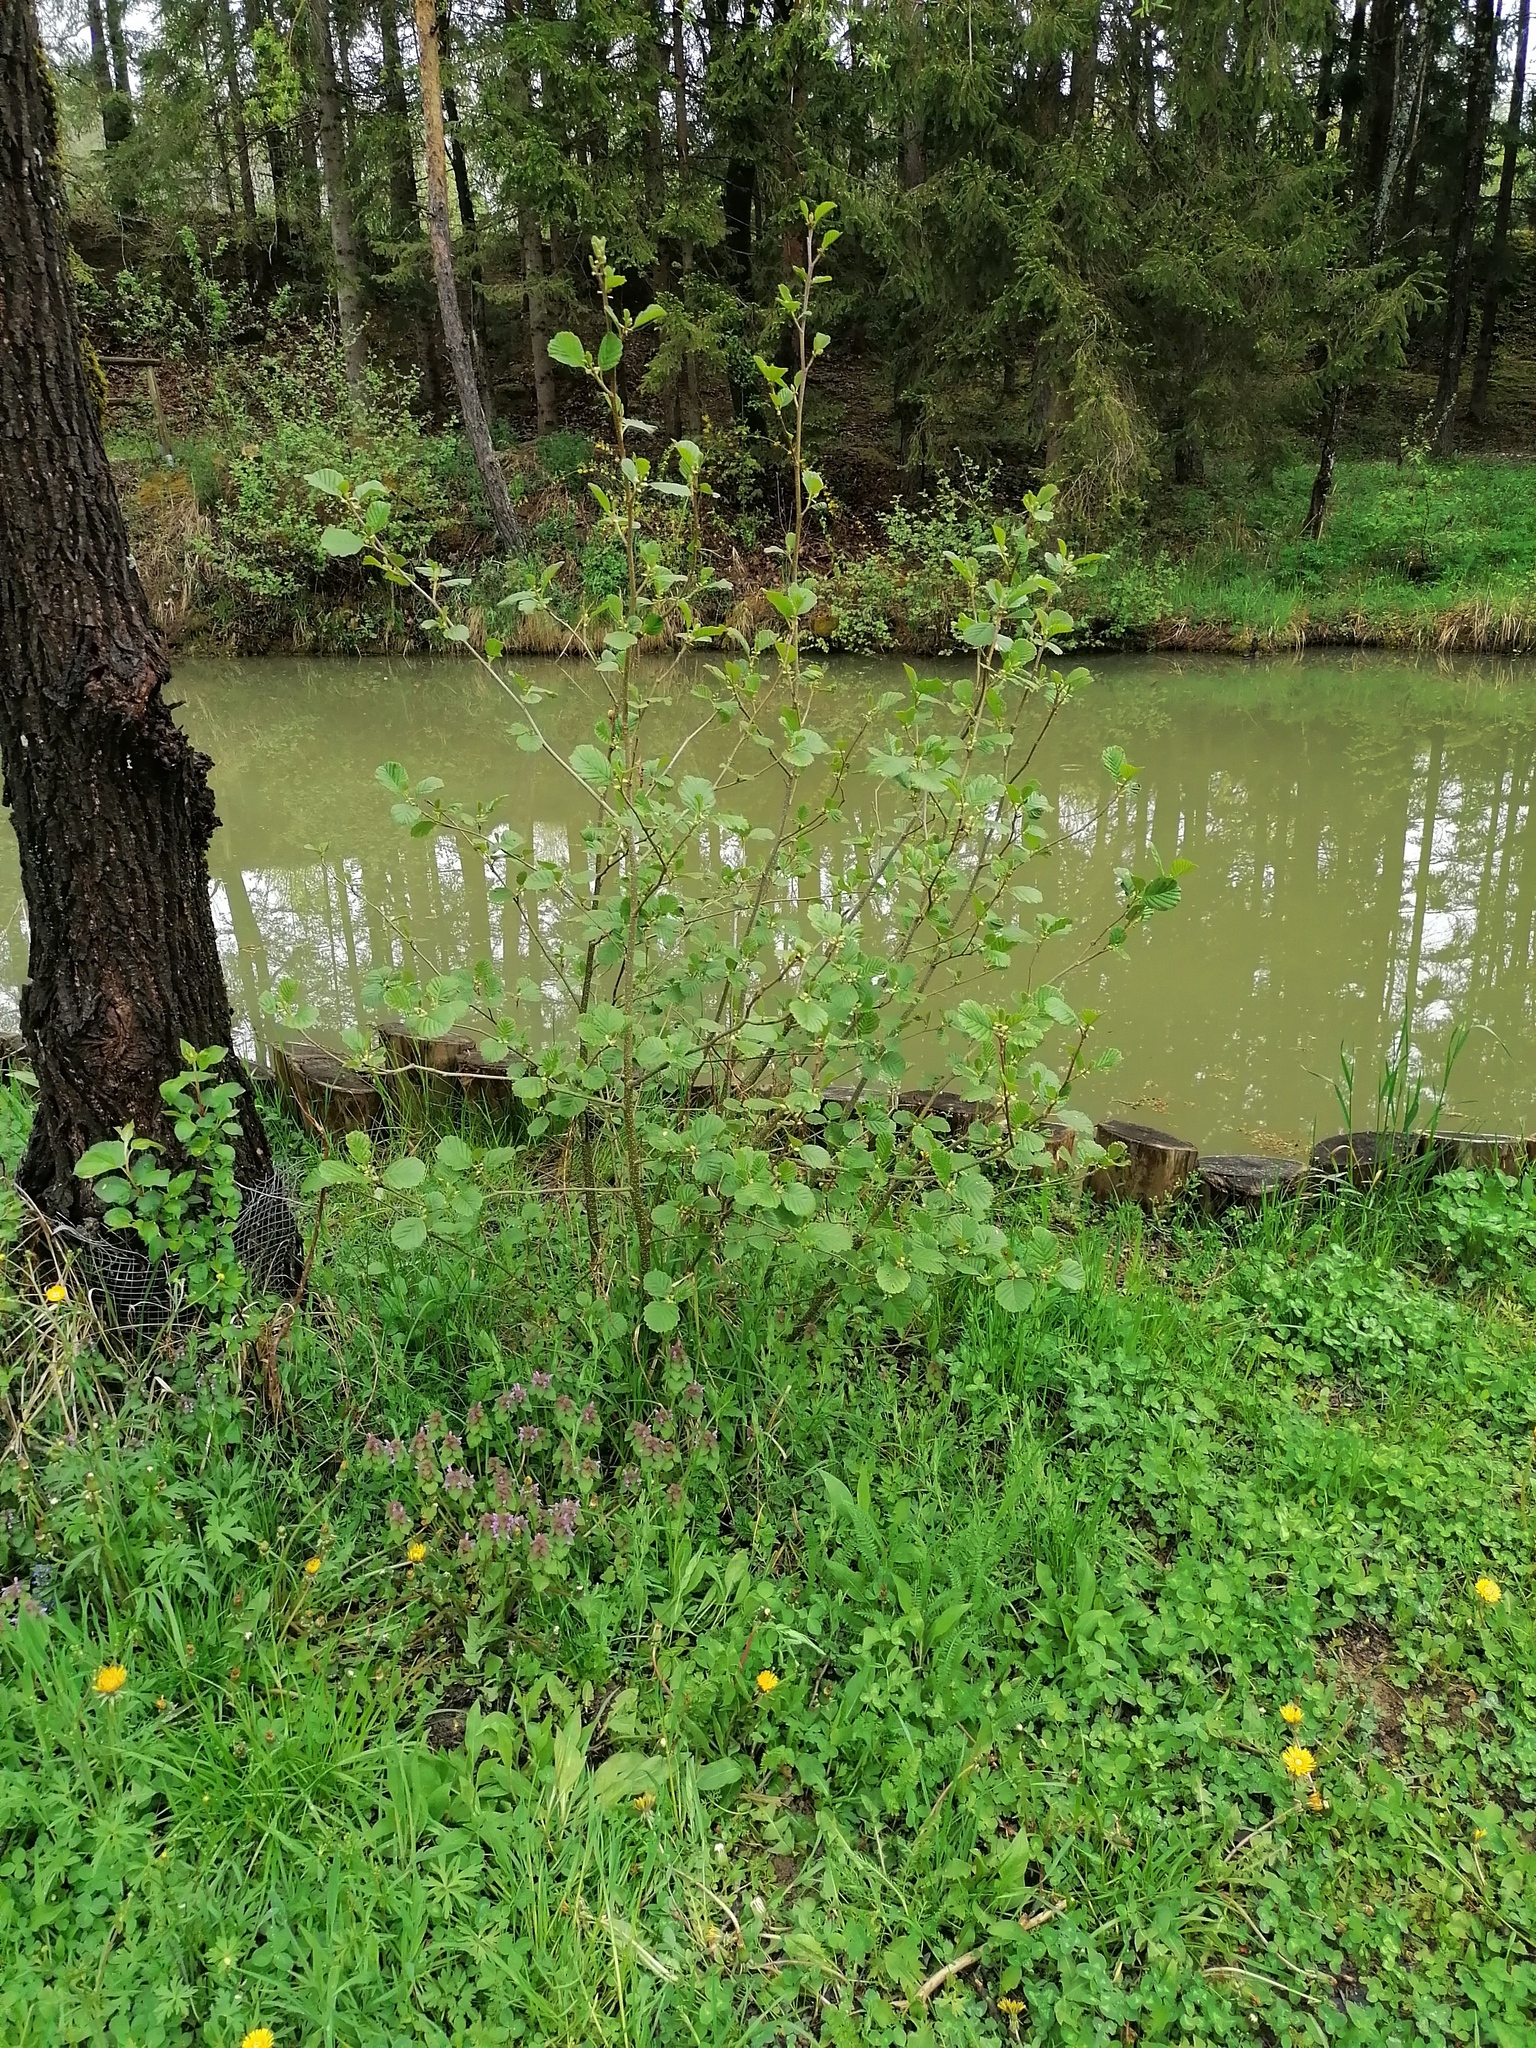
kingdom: Plantae
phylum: Tracheophyta
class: Magnoliopsida
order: Fagales
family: Betulaceae
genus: Alnus
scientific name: Alnus glutinosa
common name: Black alder
